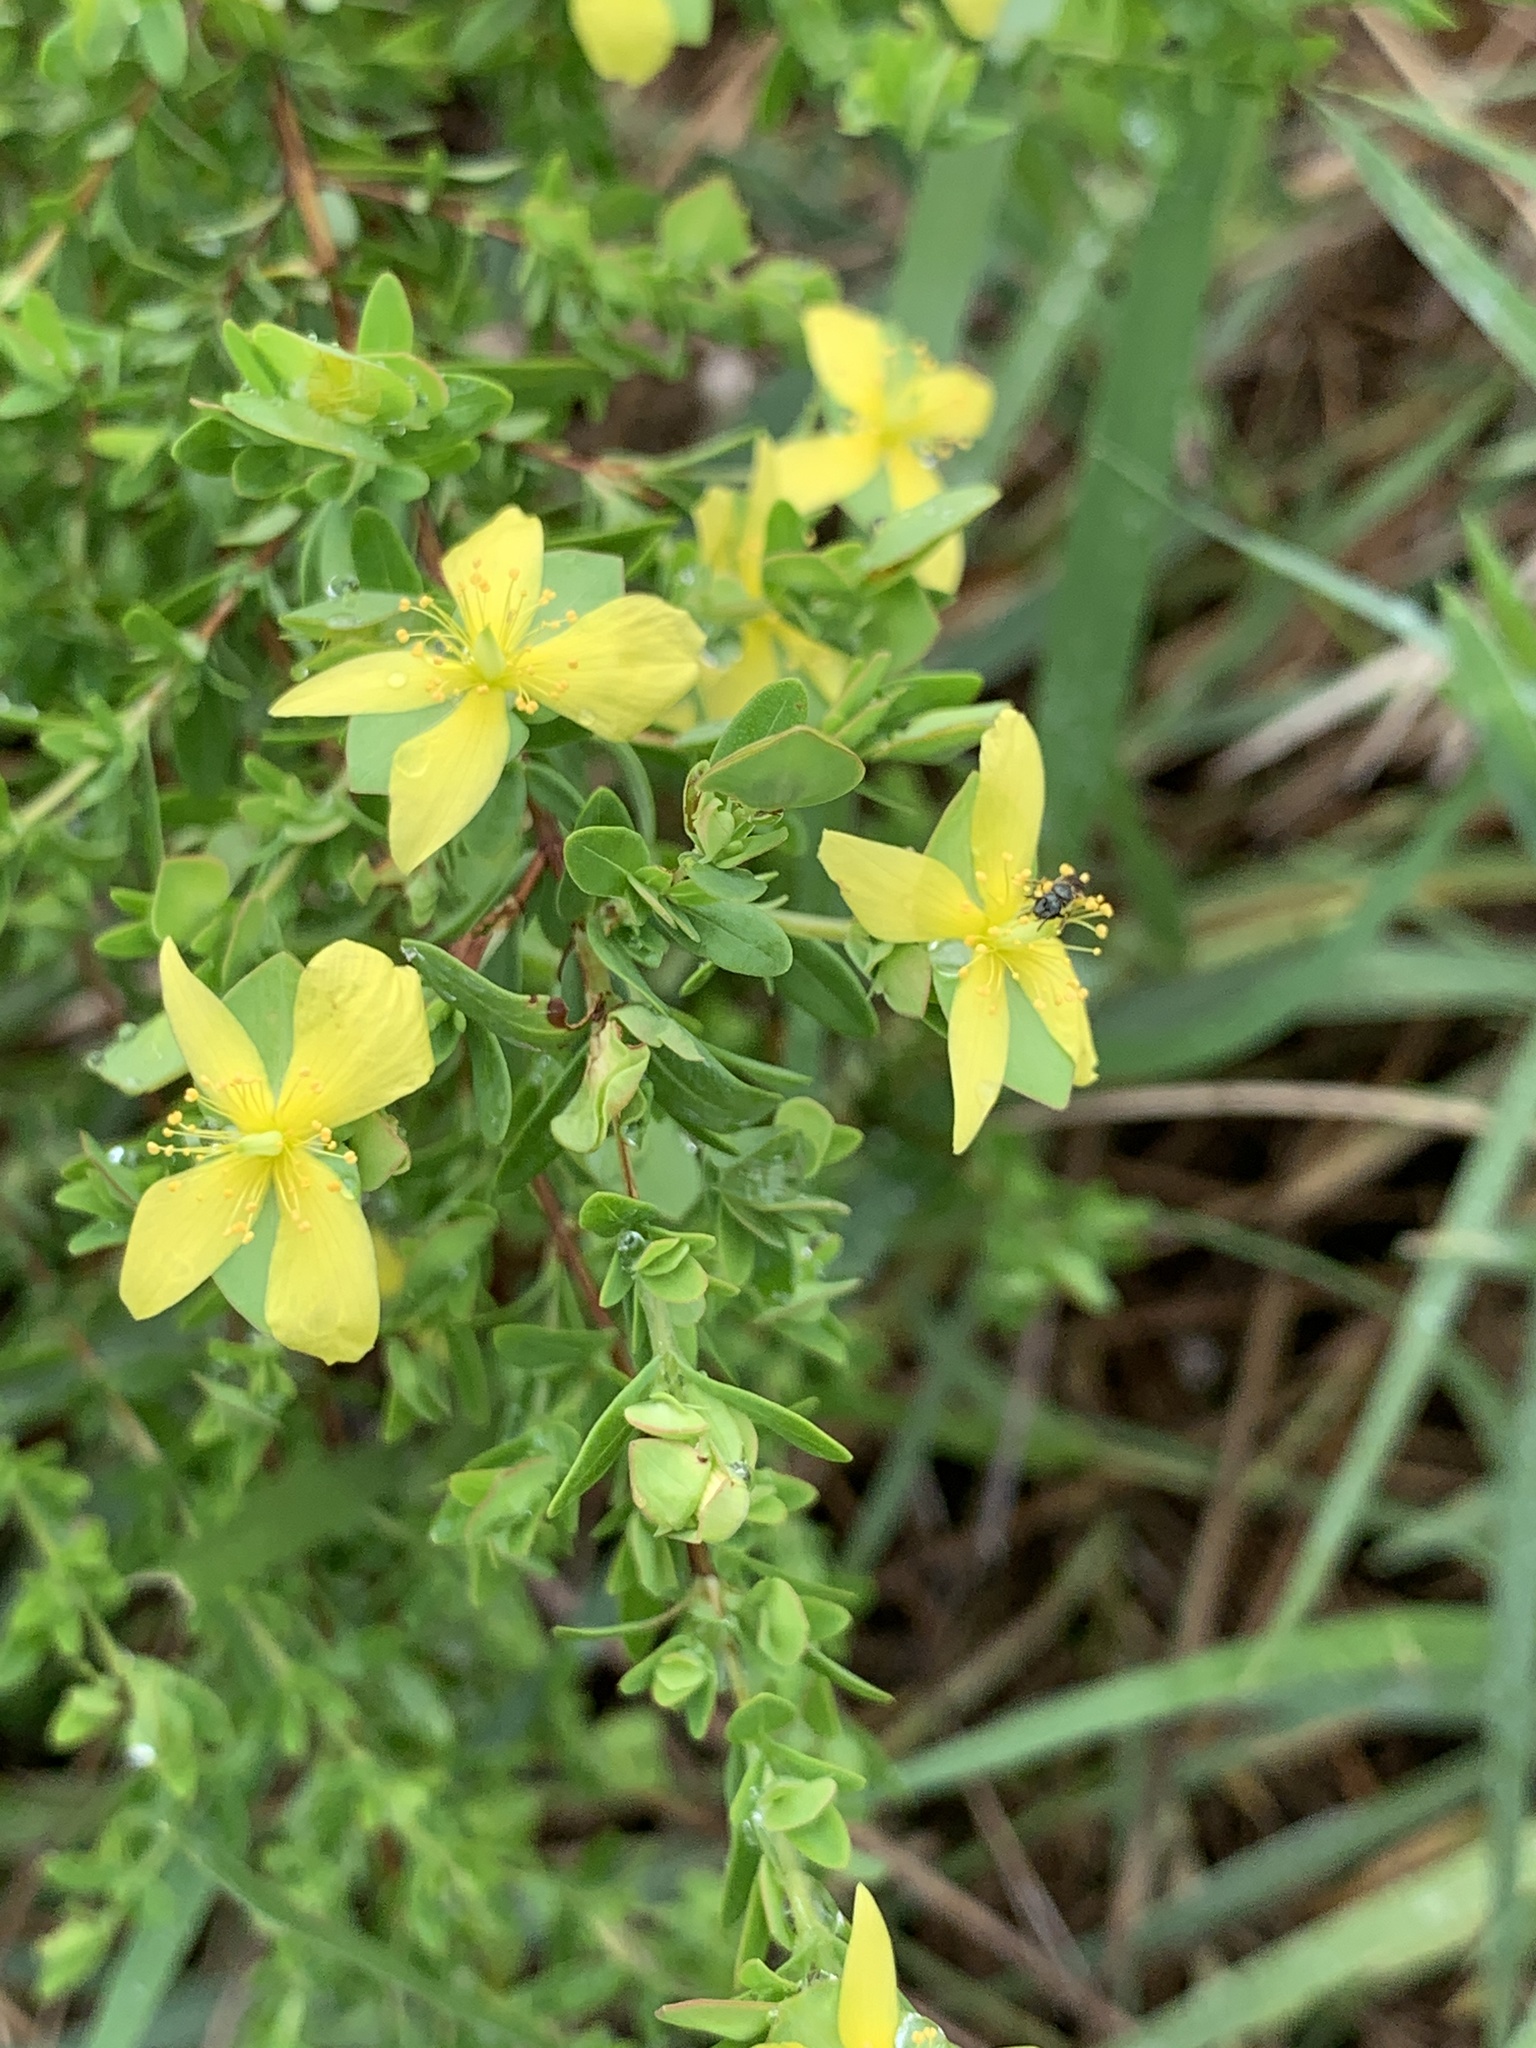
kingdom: Plantae
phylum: Tracheophyta
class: Magnoliopsida
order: Malpighiales
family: Hypericaceae
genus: Hypericum
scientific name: Hypericum hypericoides
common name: St. andrew's cross
